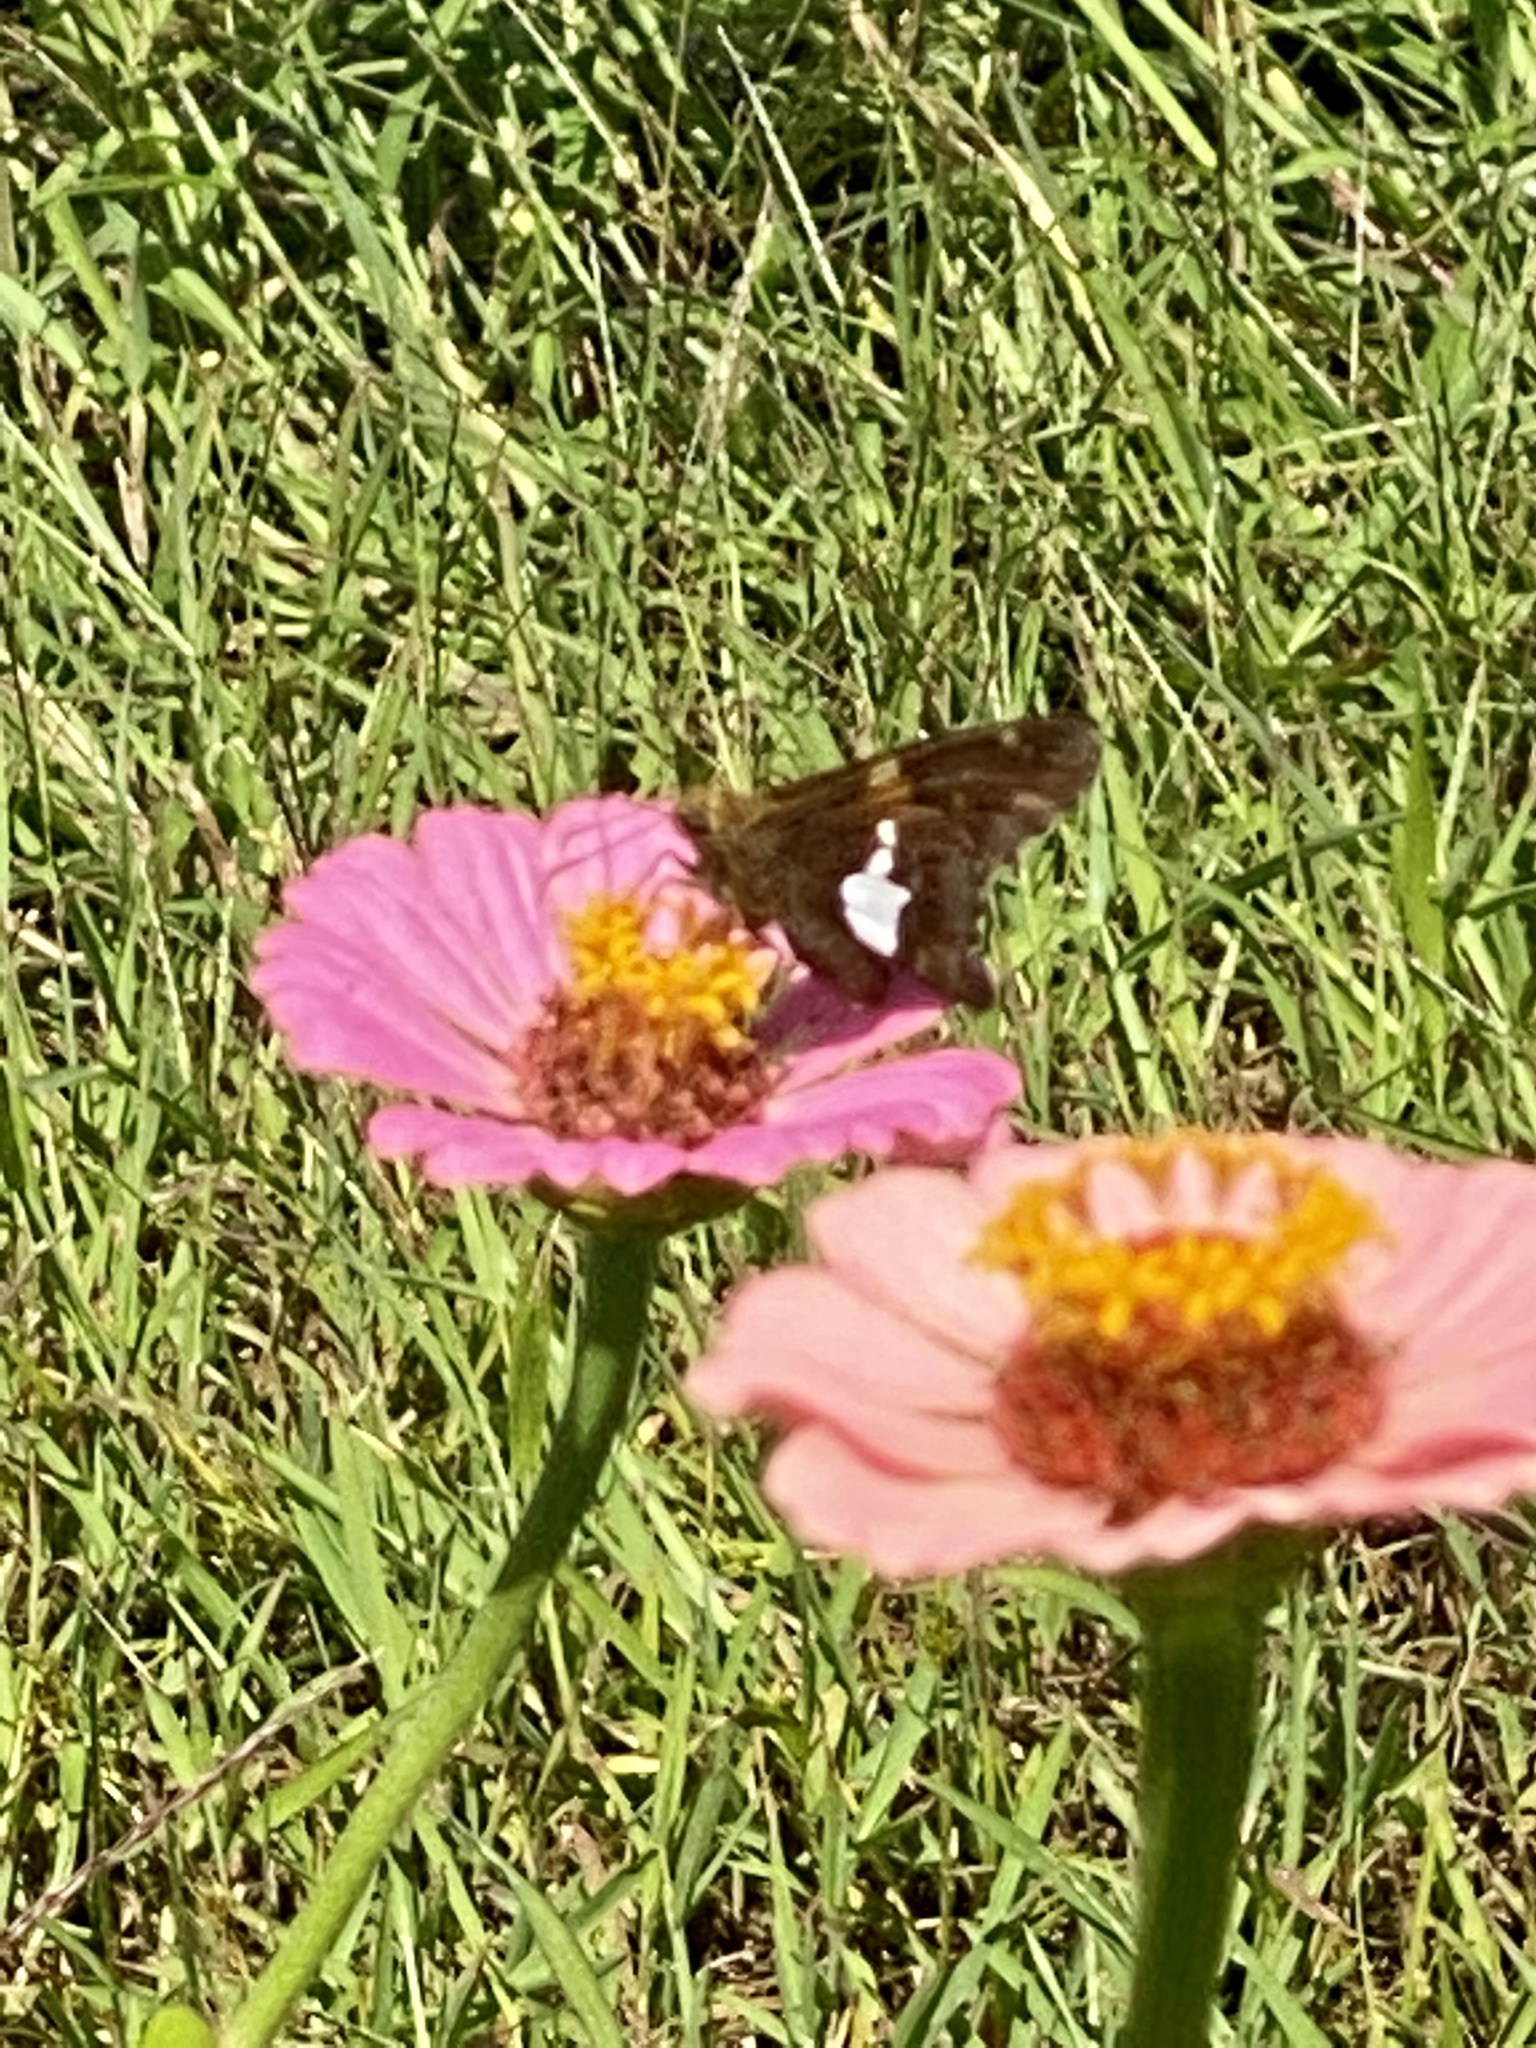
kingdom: Animalia
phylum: Arthropoda
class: Insecta
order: Lepidoptera
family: Hesperiidae
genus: Epargyreus
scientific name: Epargyreus clarus
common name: Silver-spotted skipper
